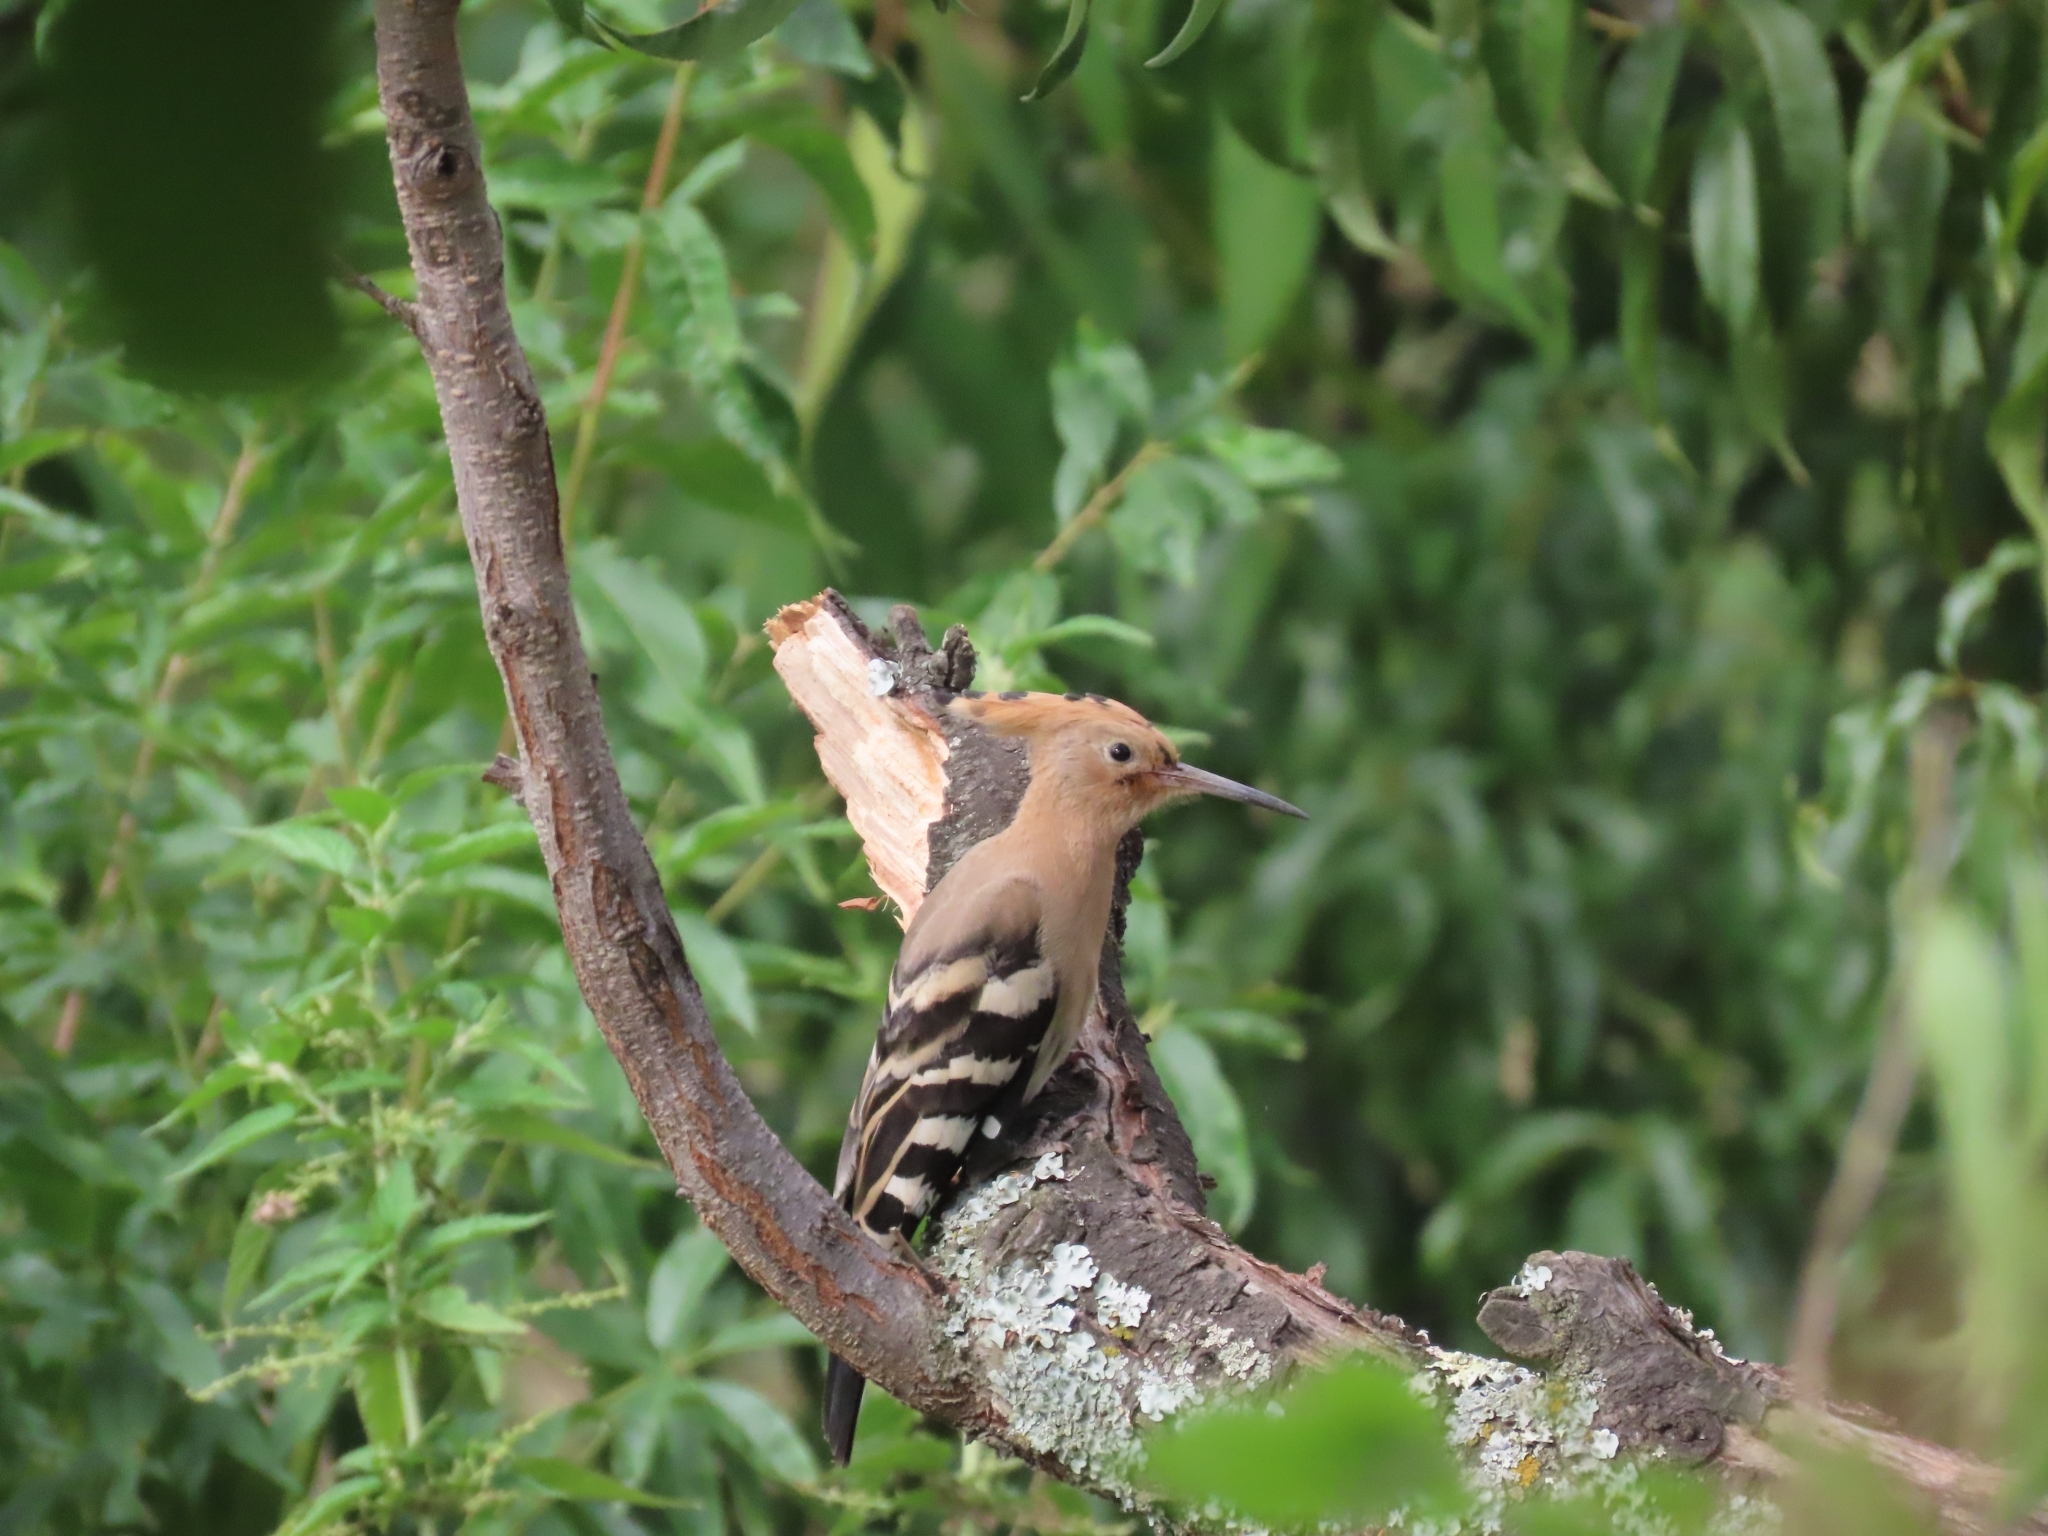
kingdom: Animalia
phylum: Chordata
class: Aves
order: Bucerotiformes
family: Upupidae
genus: Upupa
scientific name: Upupa epops
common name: Eurasian hoopoe
